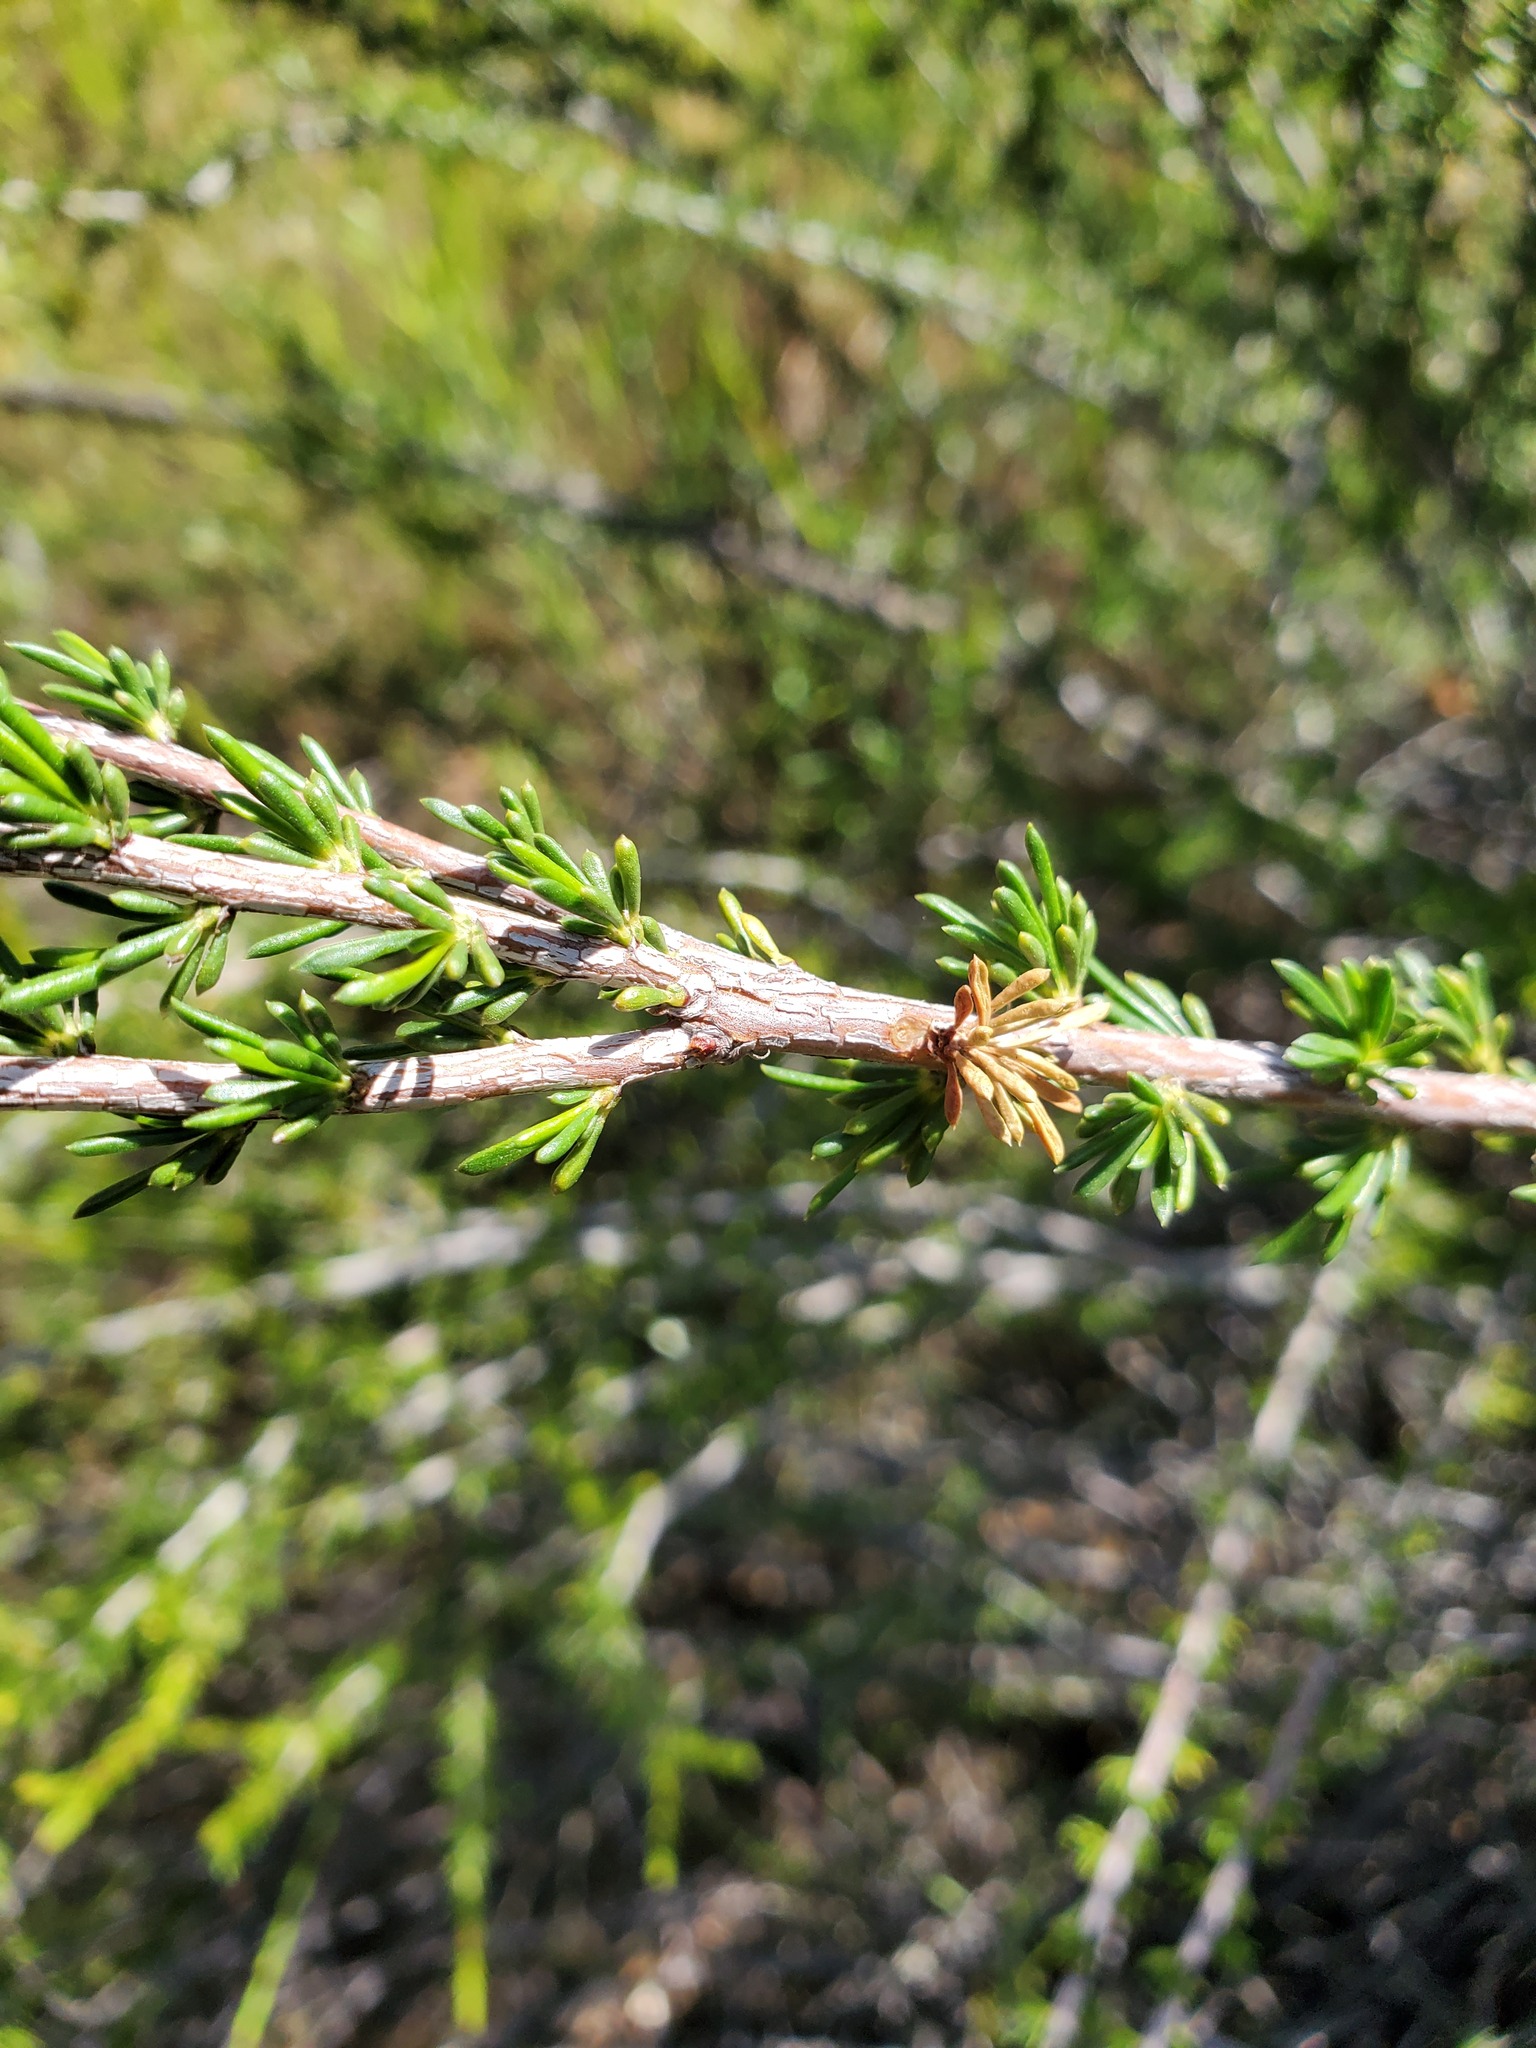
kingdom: Plantae
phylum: Tracheophyta
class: Magnoliopsida
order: Rosales
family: Rosaceae
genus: Adenostoma
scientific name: Adenostoma fasciculatum
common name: Chamise
